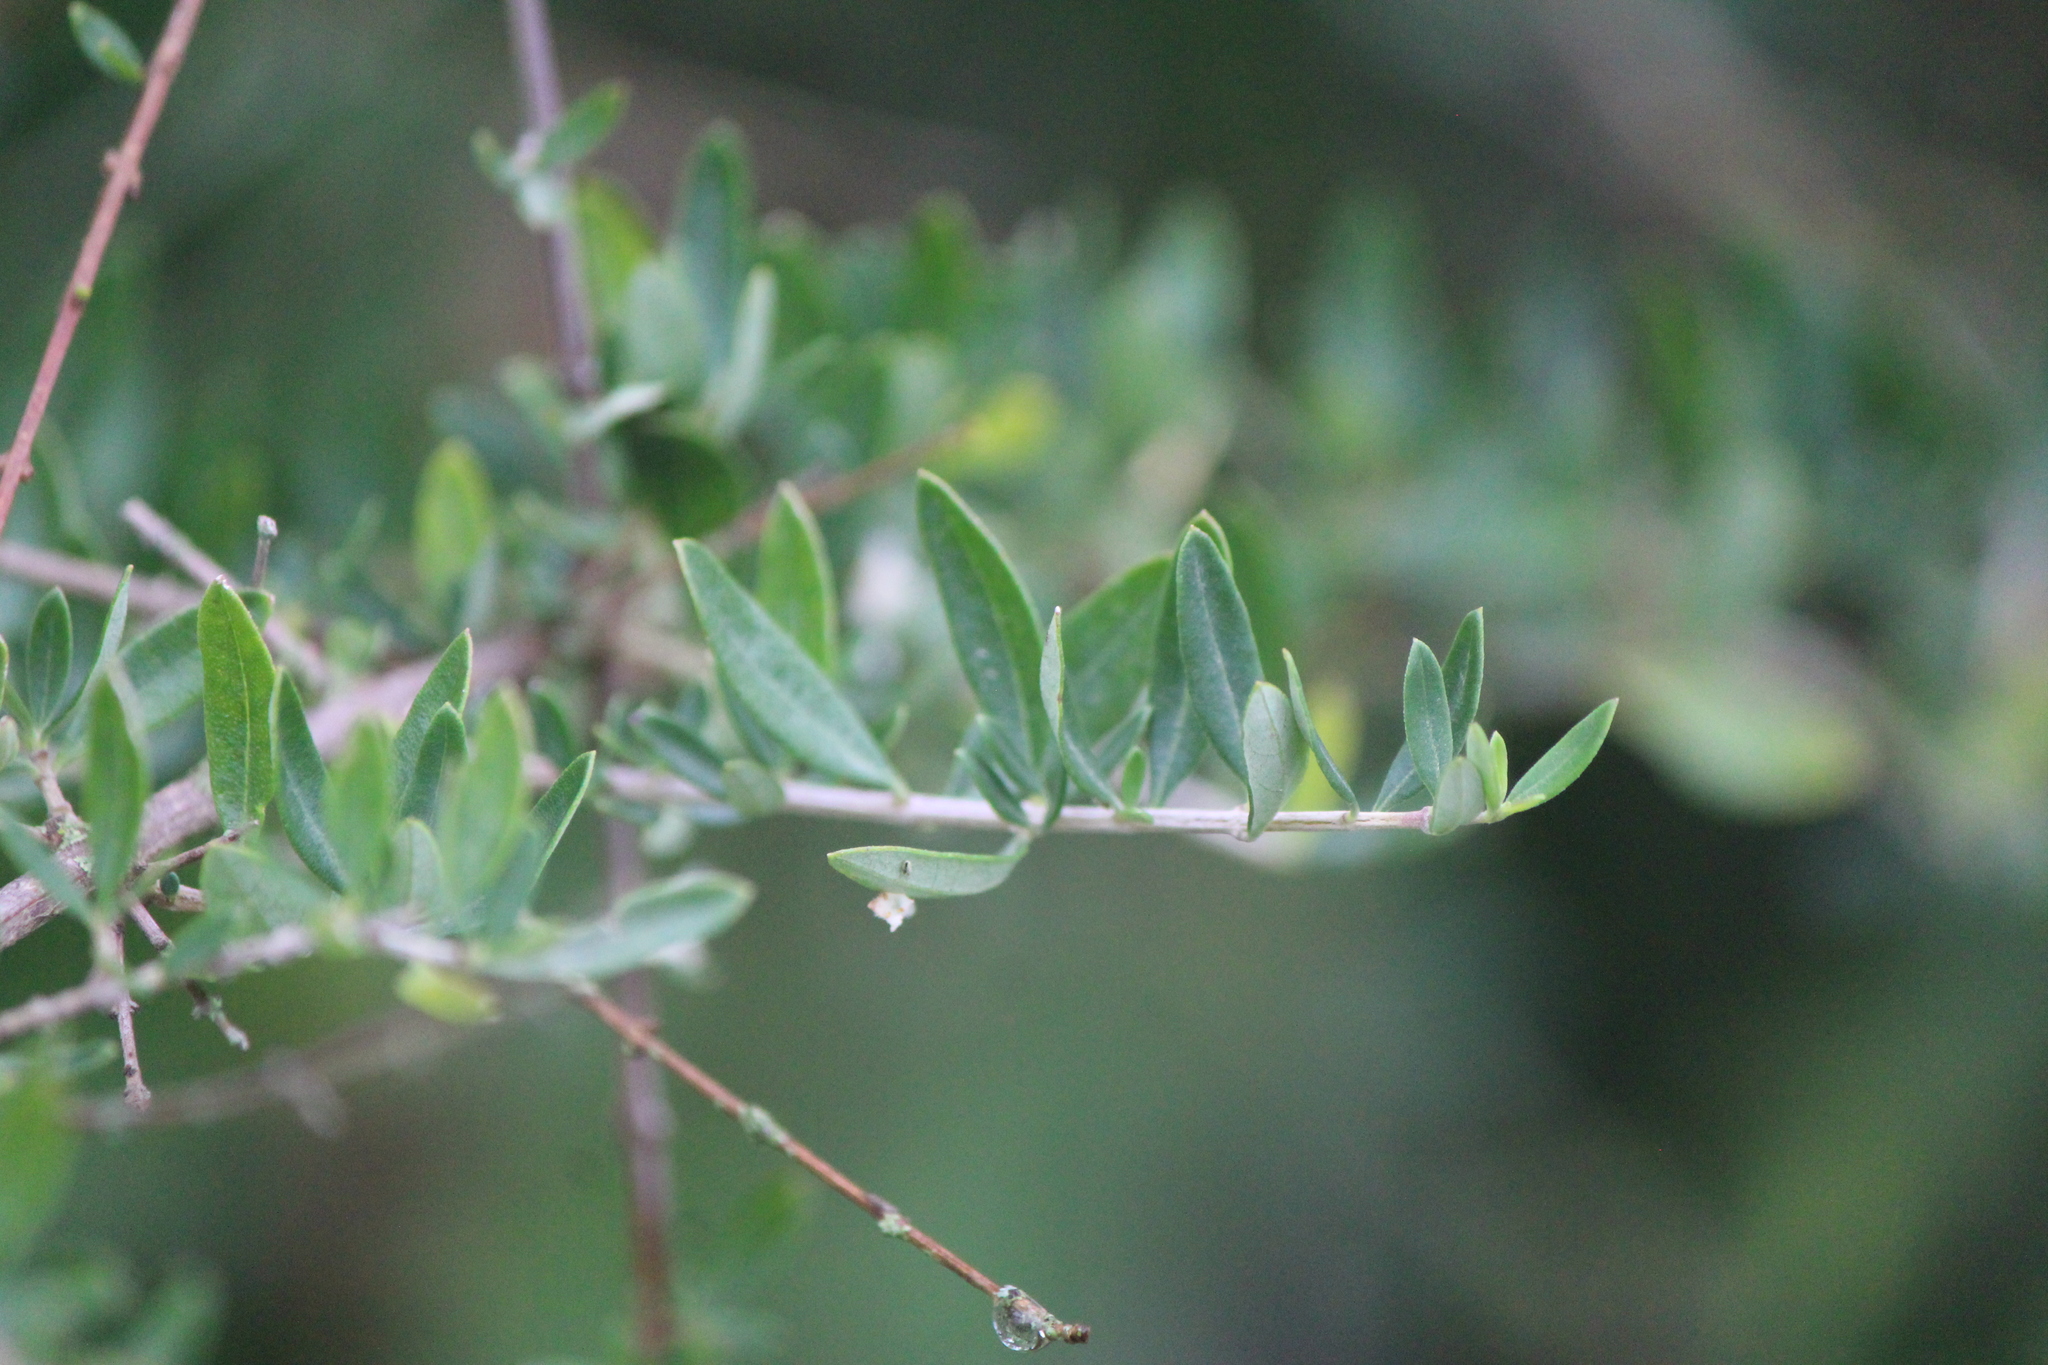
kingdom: Plantae
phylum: Tracheophyta
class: Magnoliopsida
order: Lamiales
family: Verbenaceae
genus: Aloysia
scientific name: Aloysia gratissima
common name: Common bee-brush
